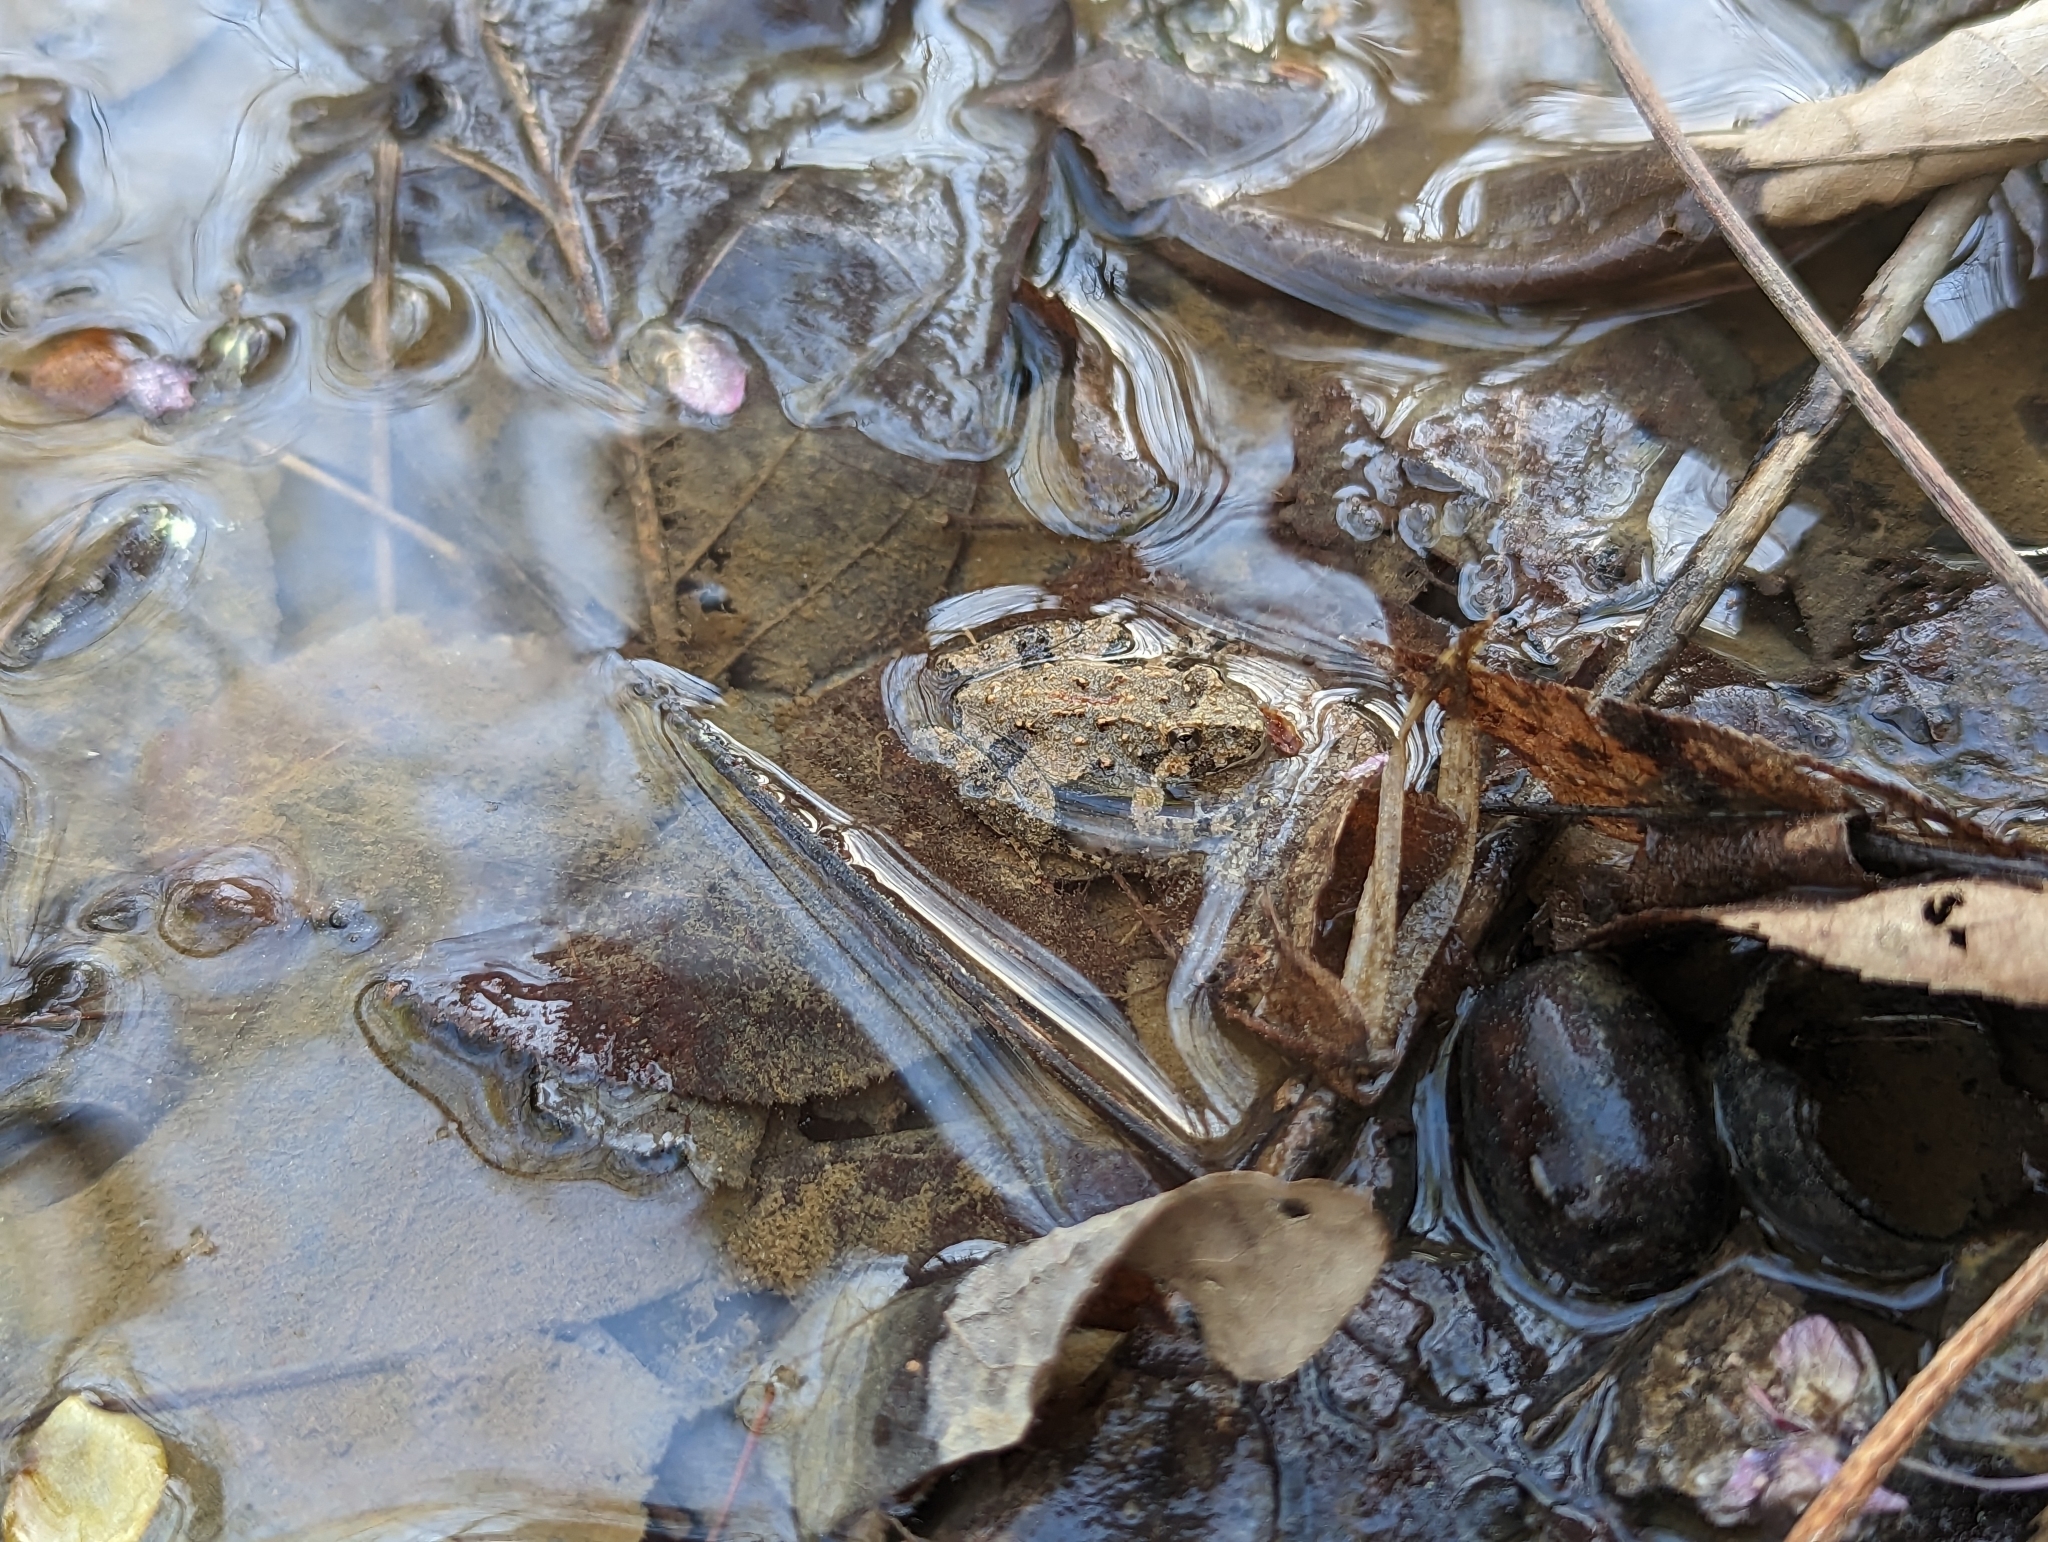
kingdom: Animalia
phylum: Chordata
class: Amphibia
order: Anura
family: Hylidae
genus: Acris
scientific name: Acris crepitans
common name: Northern cricket frog
